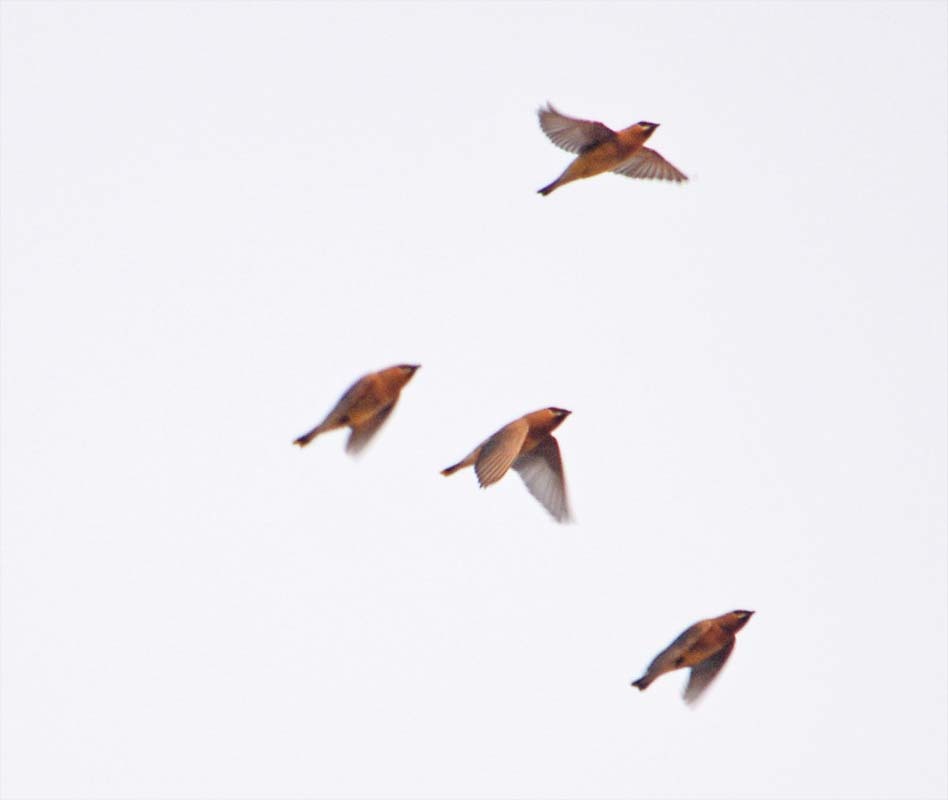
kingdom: Animalia
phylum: Chordata
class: Aves
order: Passeriformes
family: Bombycillidae
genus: Bombycilla
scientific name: Bombycilla cedrorum
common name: Cedar waxwing
